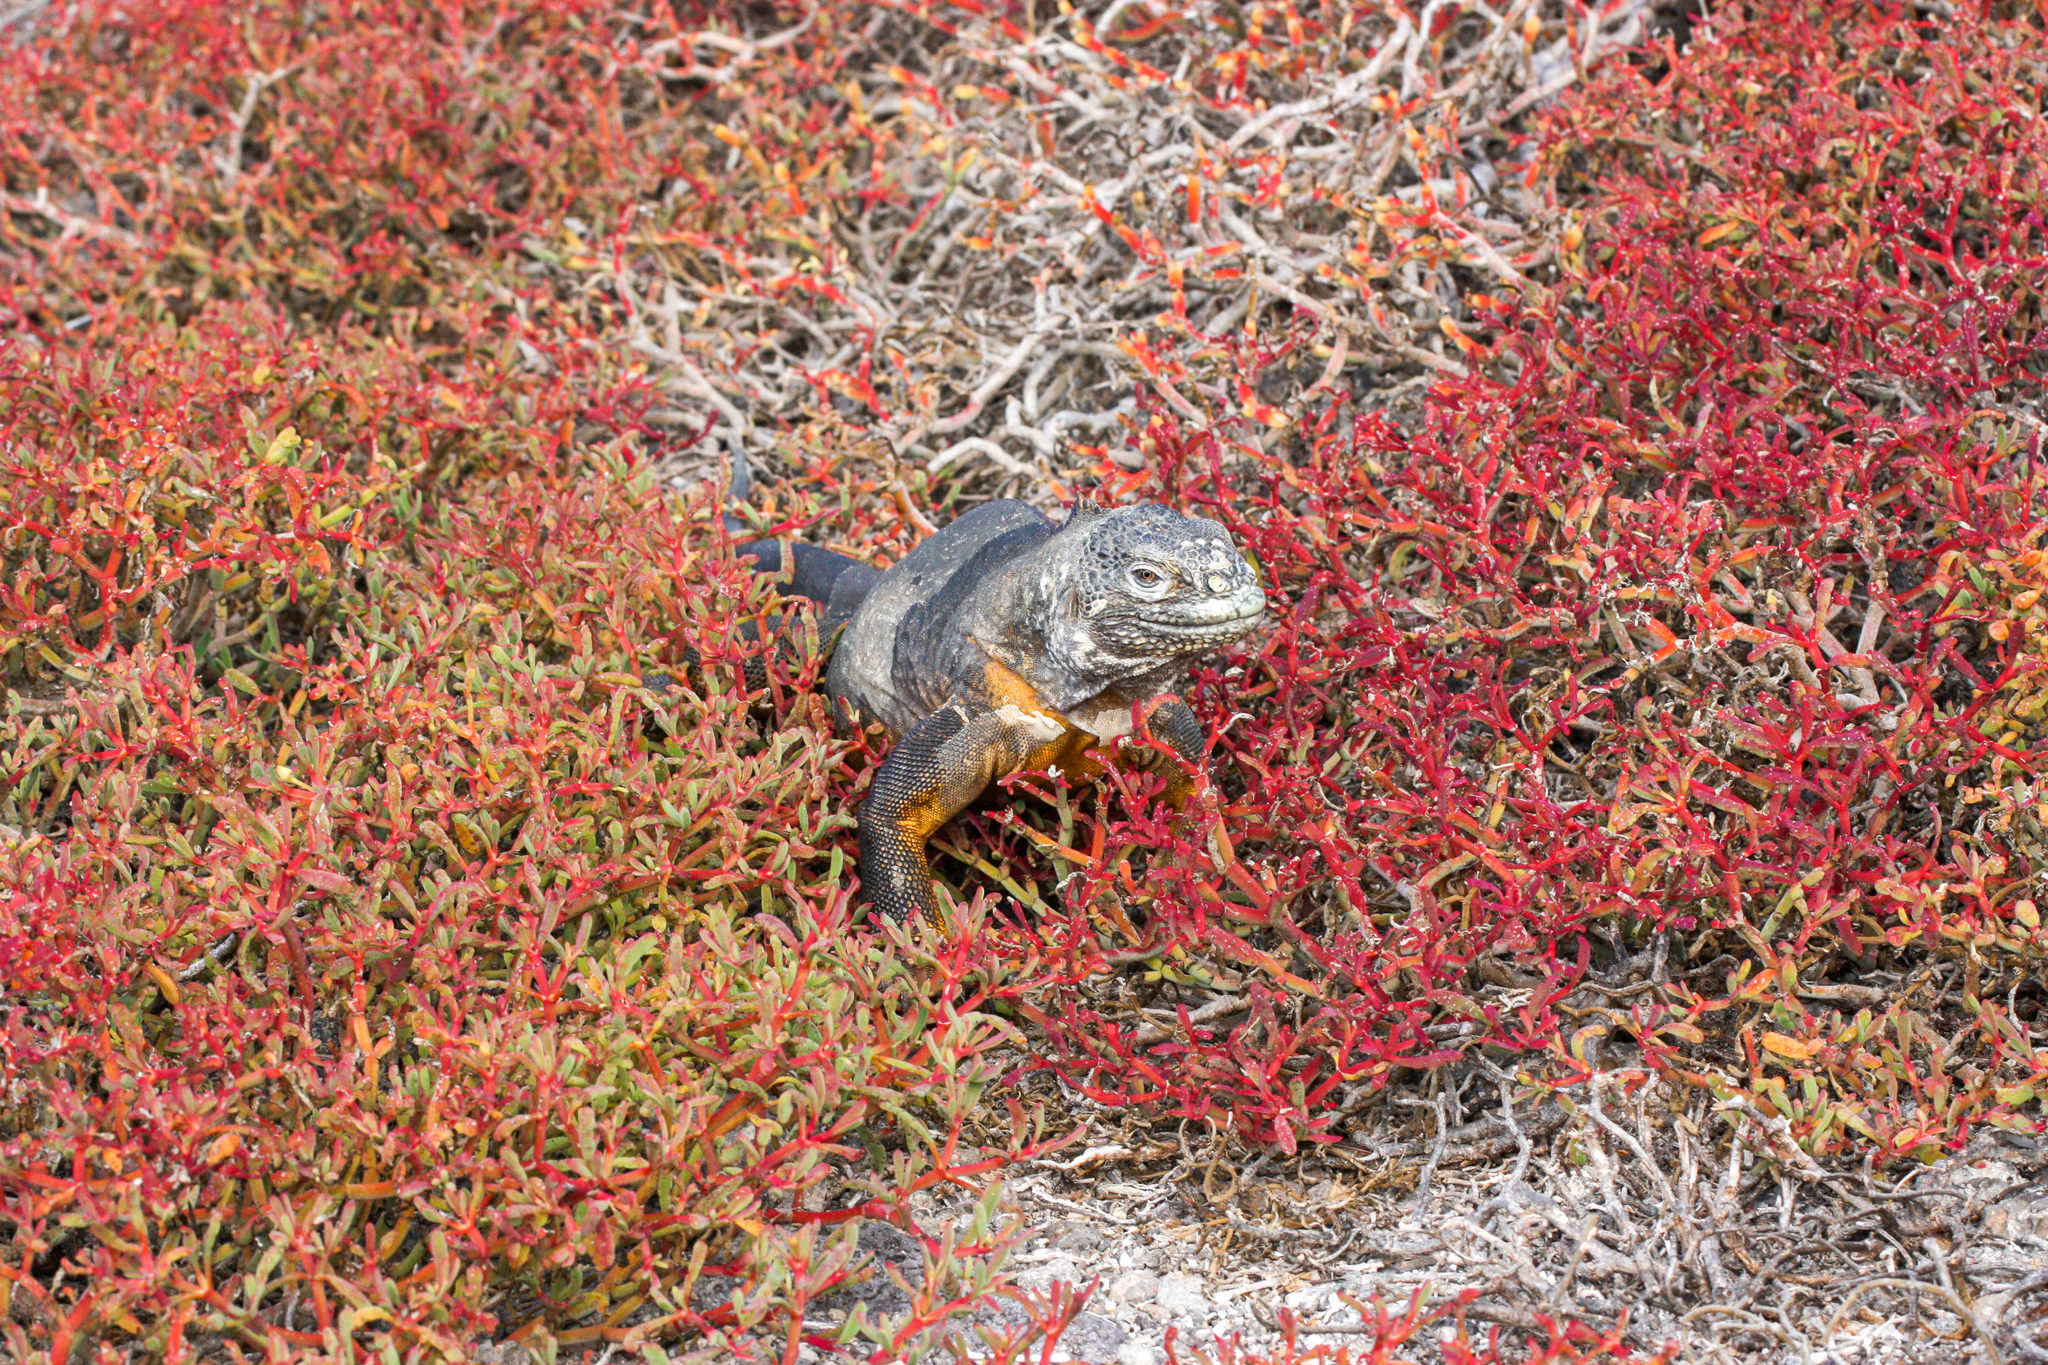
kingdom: Animalia
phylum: Chordata
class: Squamata
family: Iguanidae
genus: Conolophus
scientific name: Conolophus subcristatus
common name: Galapagos land iguana
